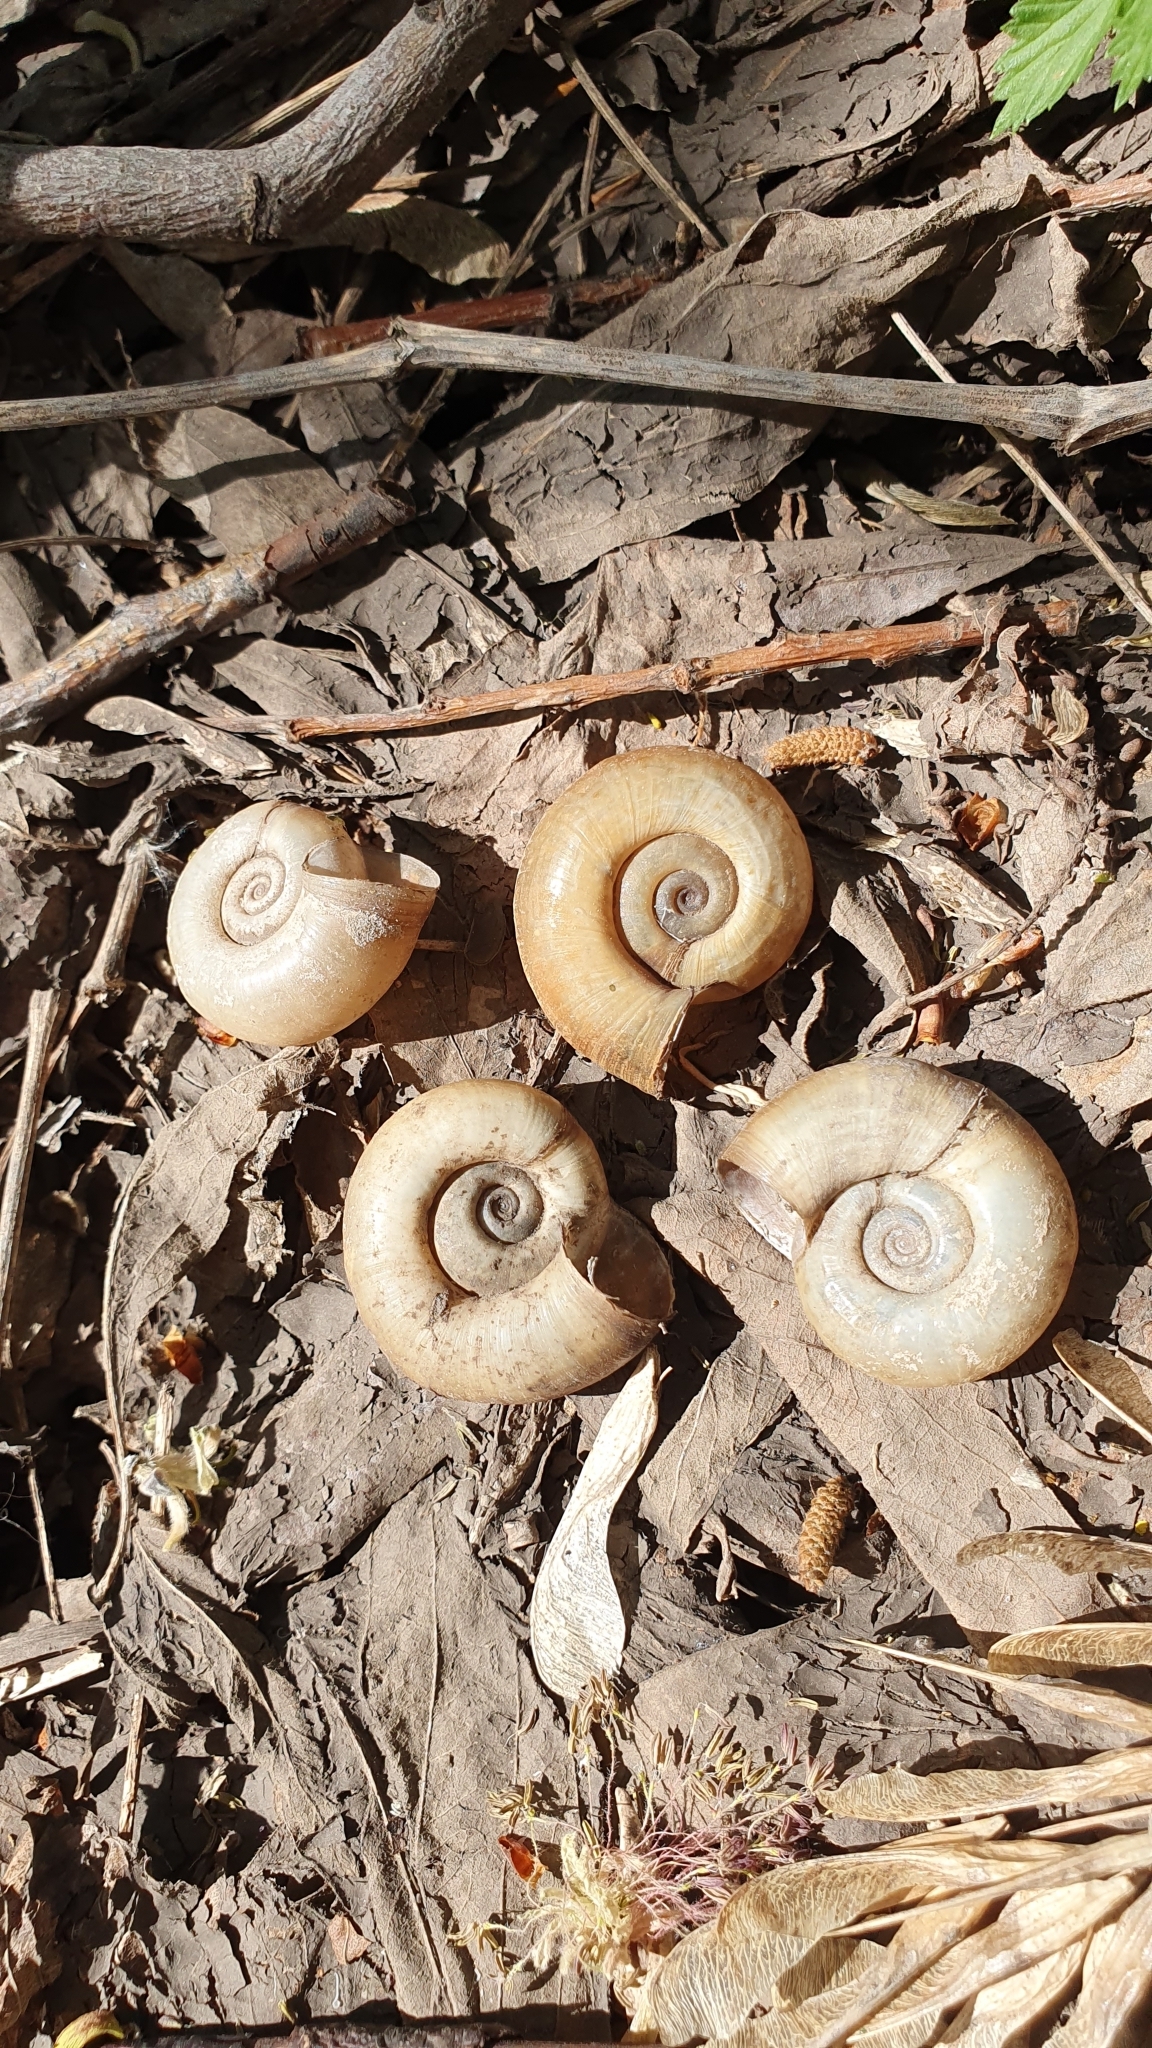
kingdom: Animalia
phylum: Mollusca
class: Gastropoda
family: Planorbidae
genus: Planorbarius
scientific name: Planorbarius corneus
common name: Great ramshorn
